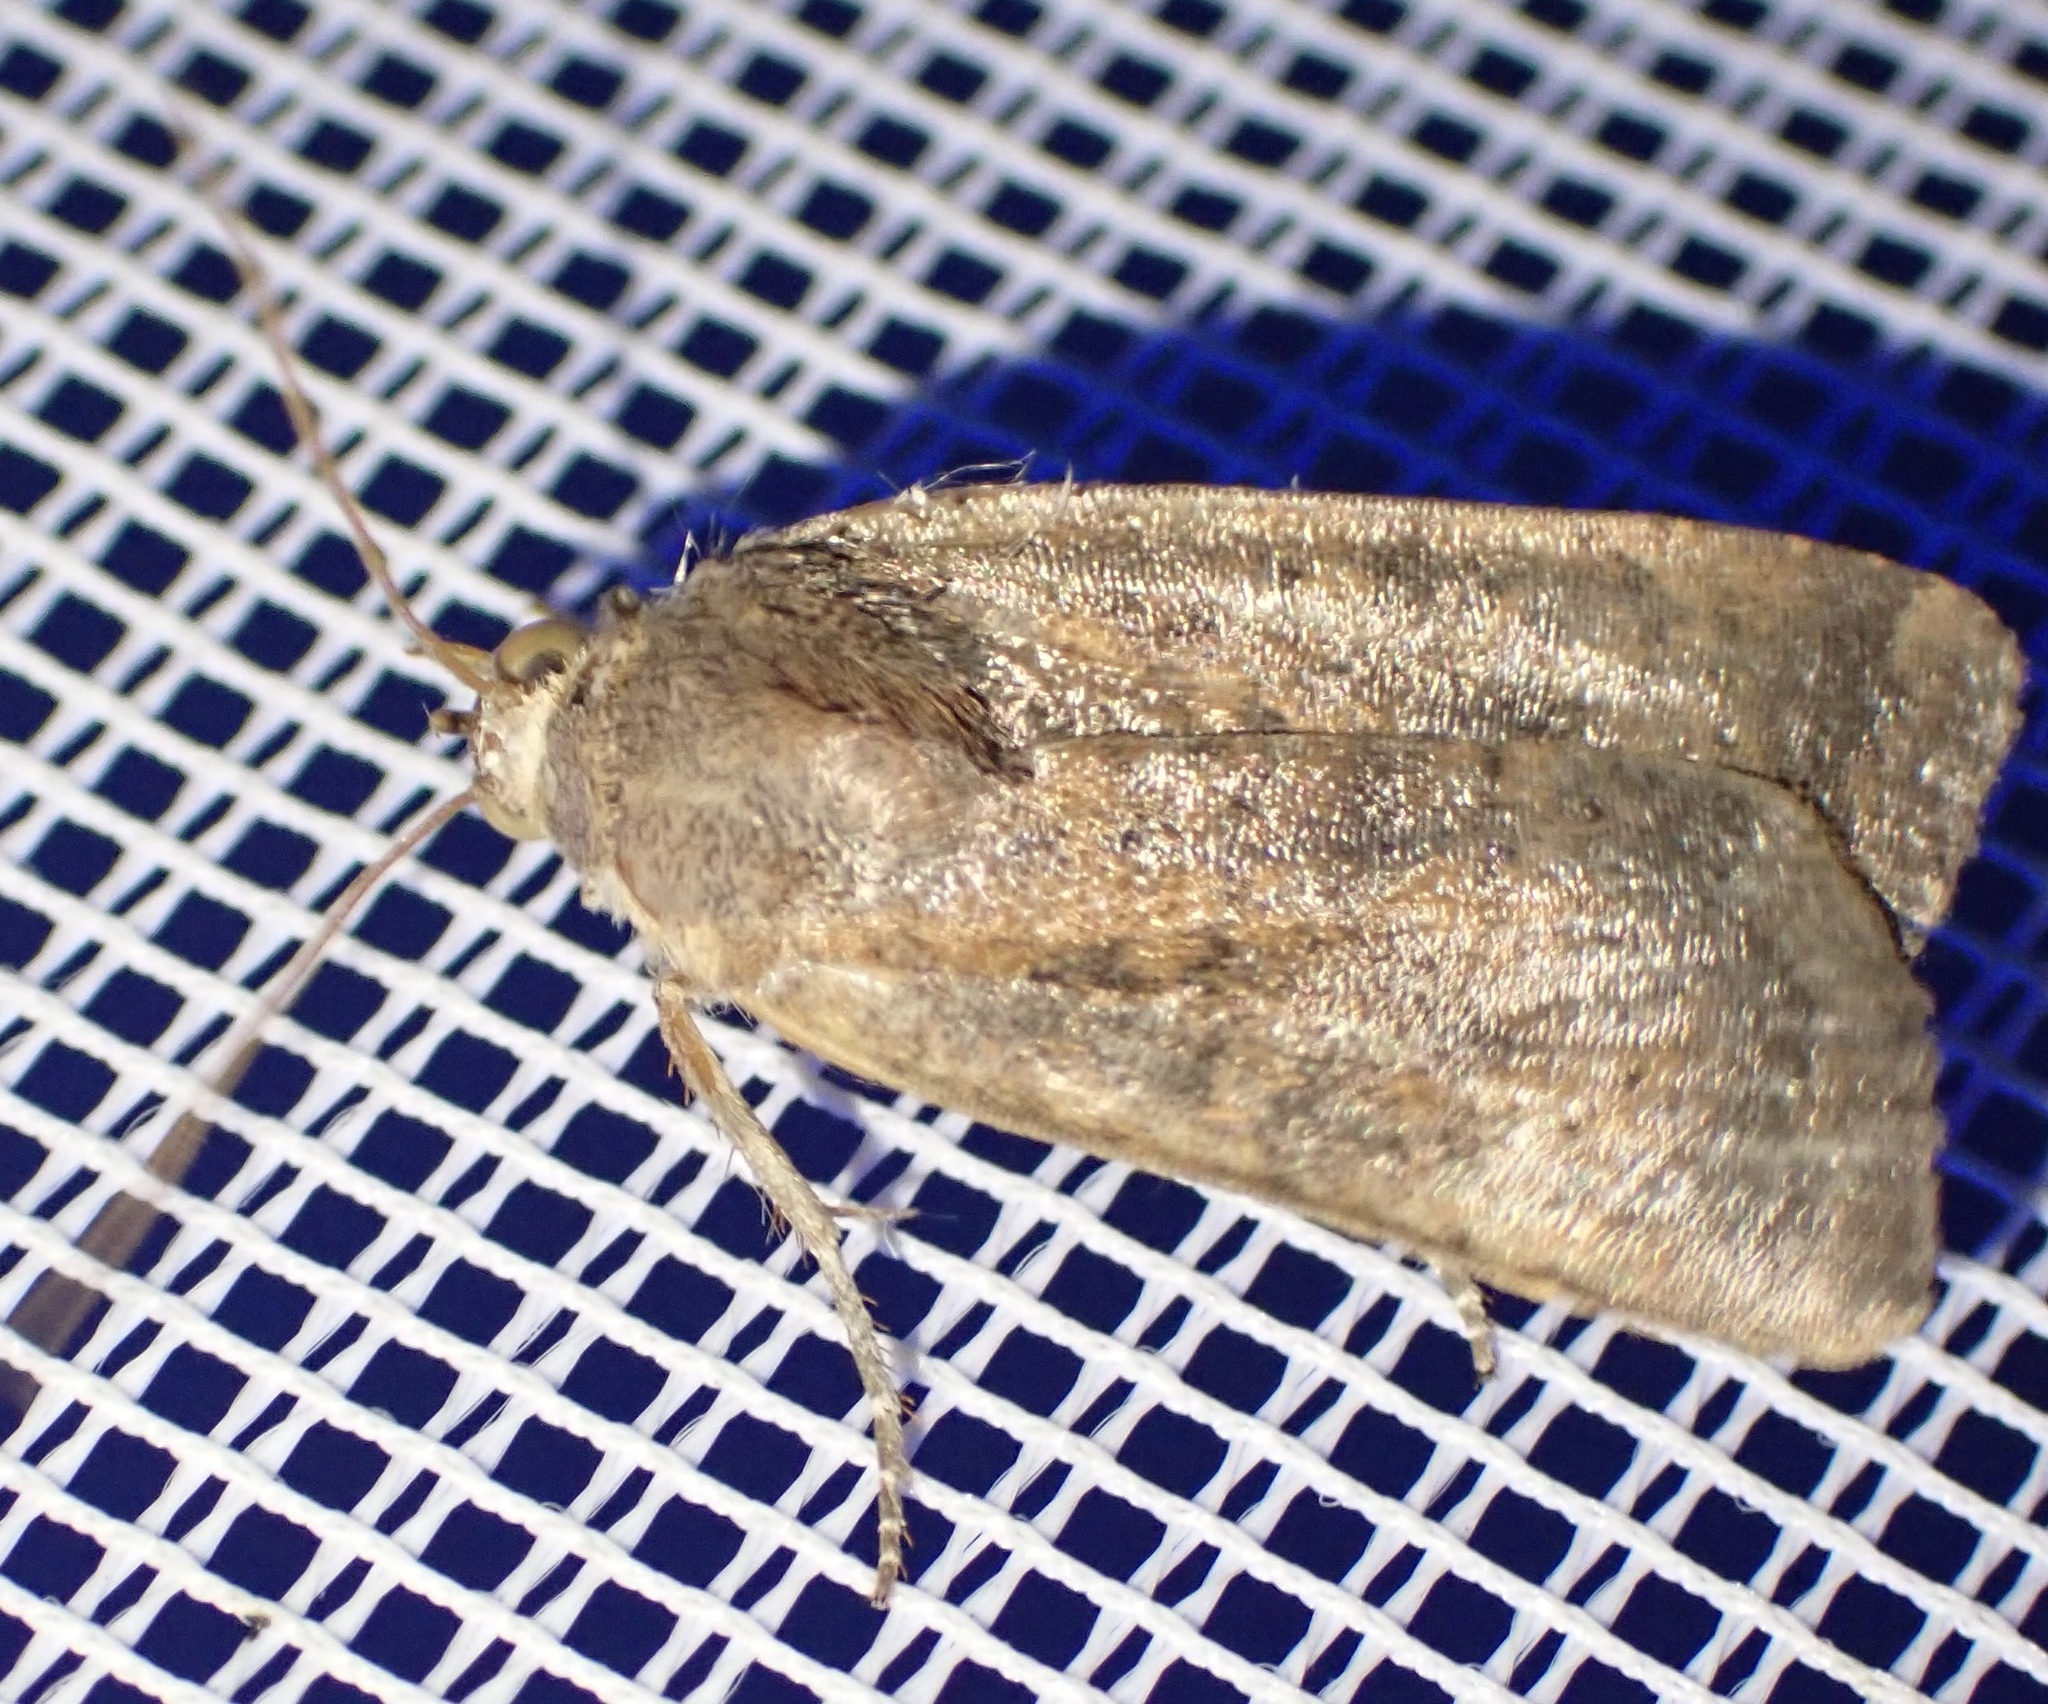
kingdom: Animalia
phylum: Arthropoda
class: Insecta
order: Lepidoptera
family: Noctuidae
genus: Noctua
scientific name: Noctua interjecta
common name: Least yellow underwing
